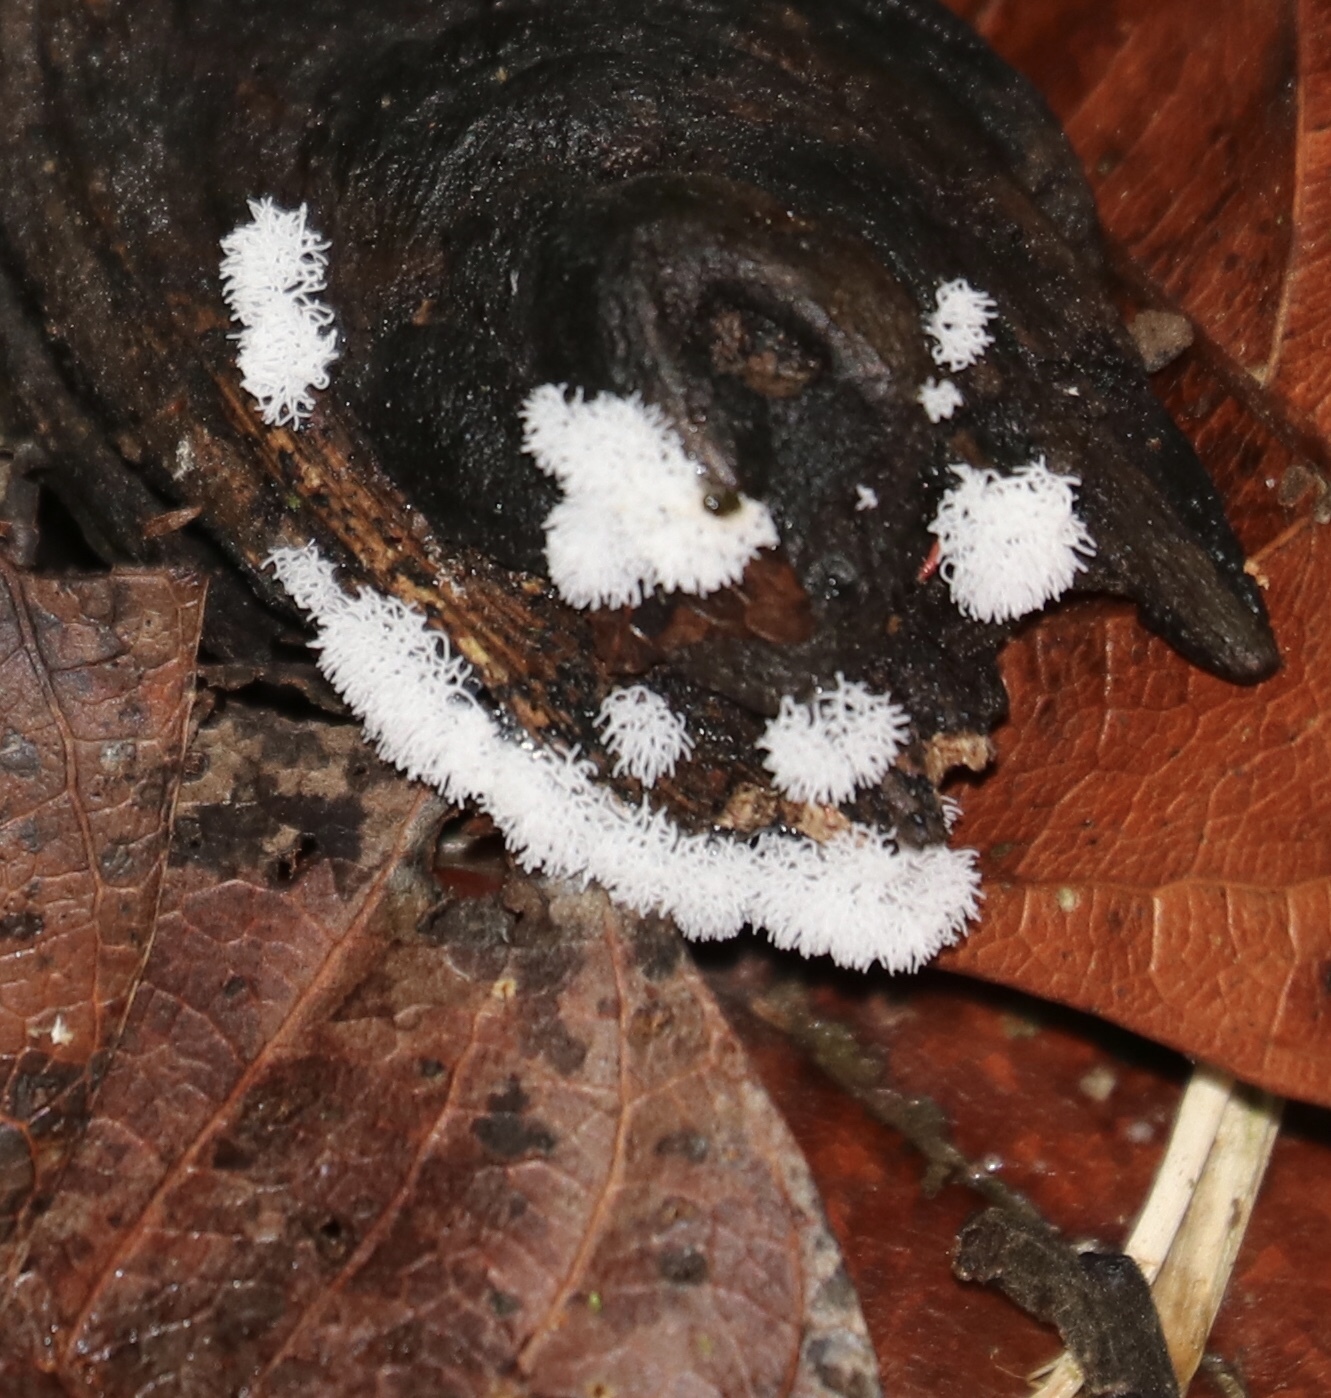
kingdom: Protozoa
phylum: Mycetozoa
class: Protosteliomycetes
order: Ceratiomyxales
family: Ceratiomyxaceae
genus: Ceratiomyxa
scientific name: Ceratiomyxa fruticulosa
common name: Honeycomb coral slime mold
